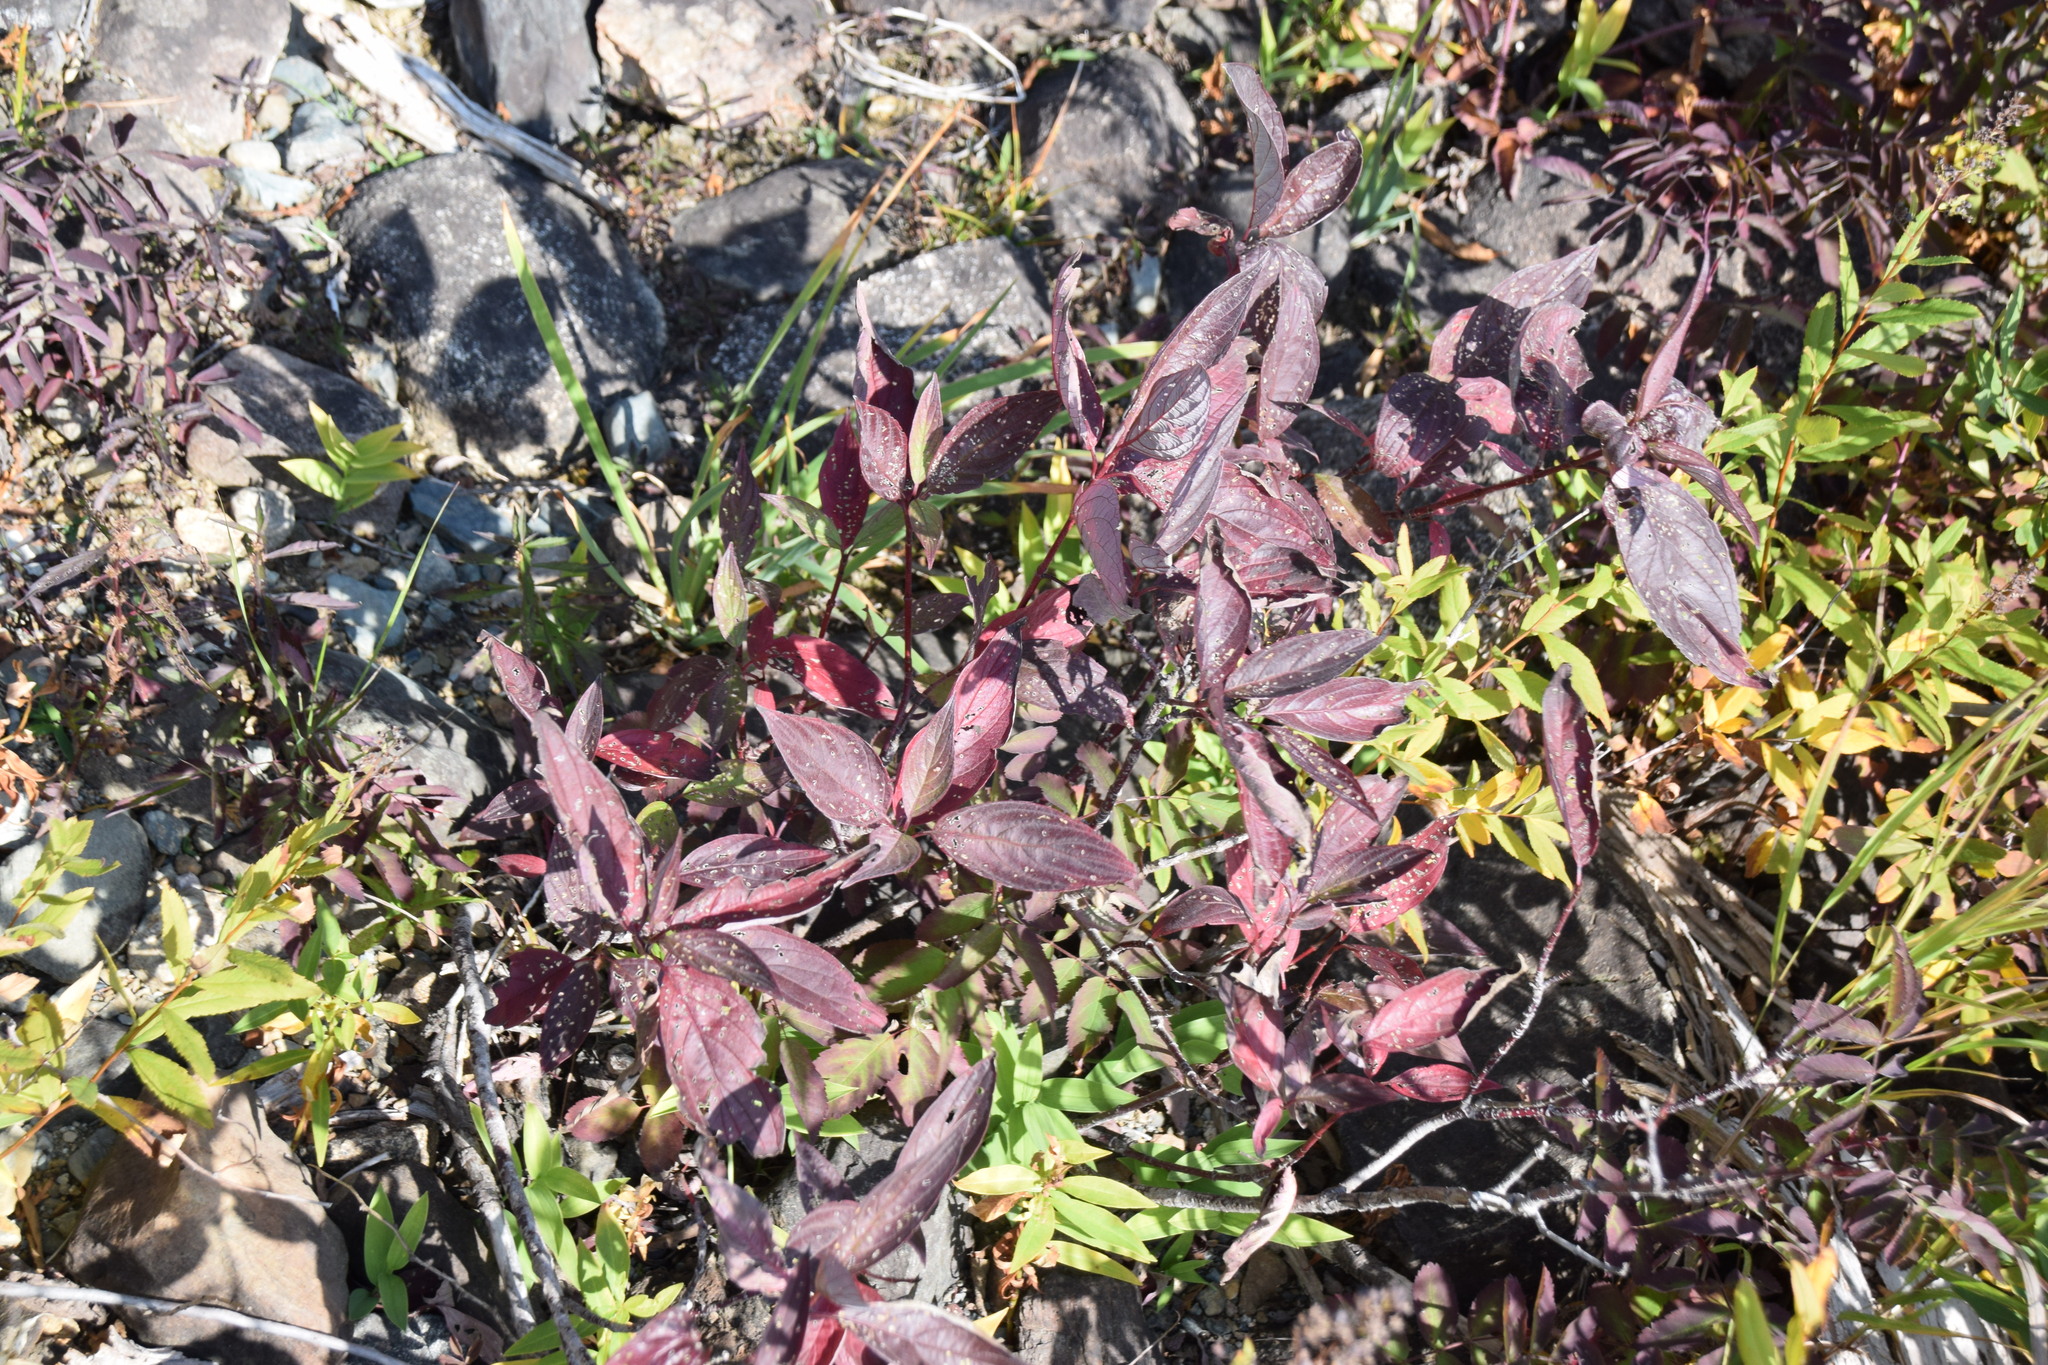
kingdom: Plantae
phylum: Tracheophyta
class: Magnoliopsida
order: Cornales
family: Cornaceae
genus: Cornus
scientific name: Cornus sericea
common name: Red-osier dogwood
